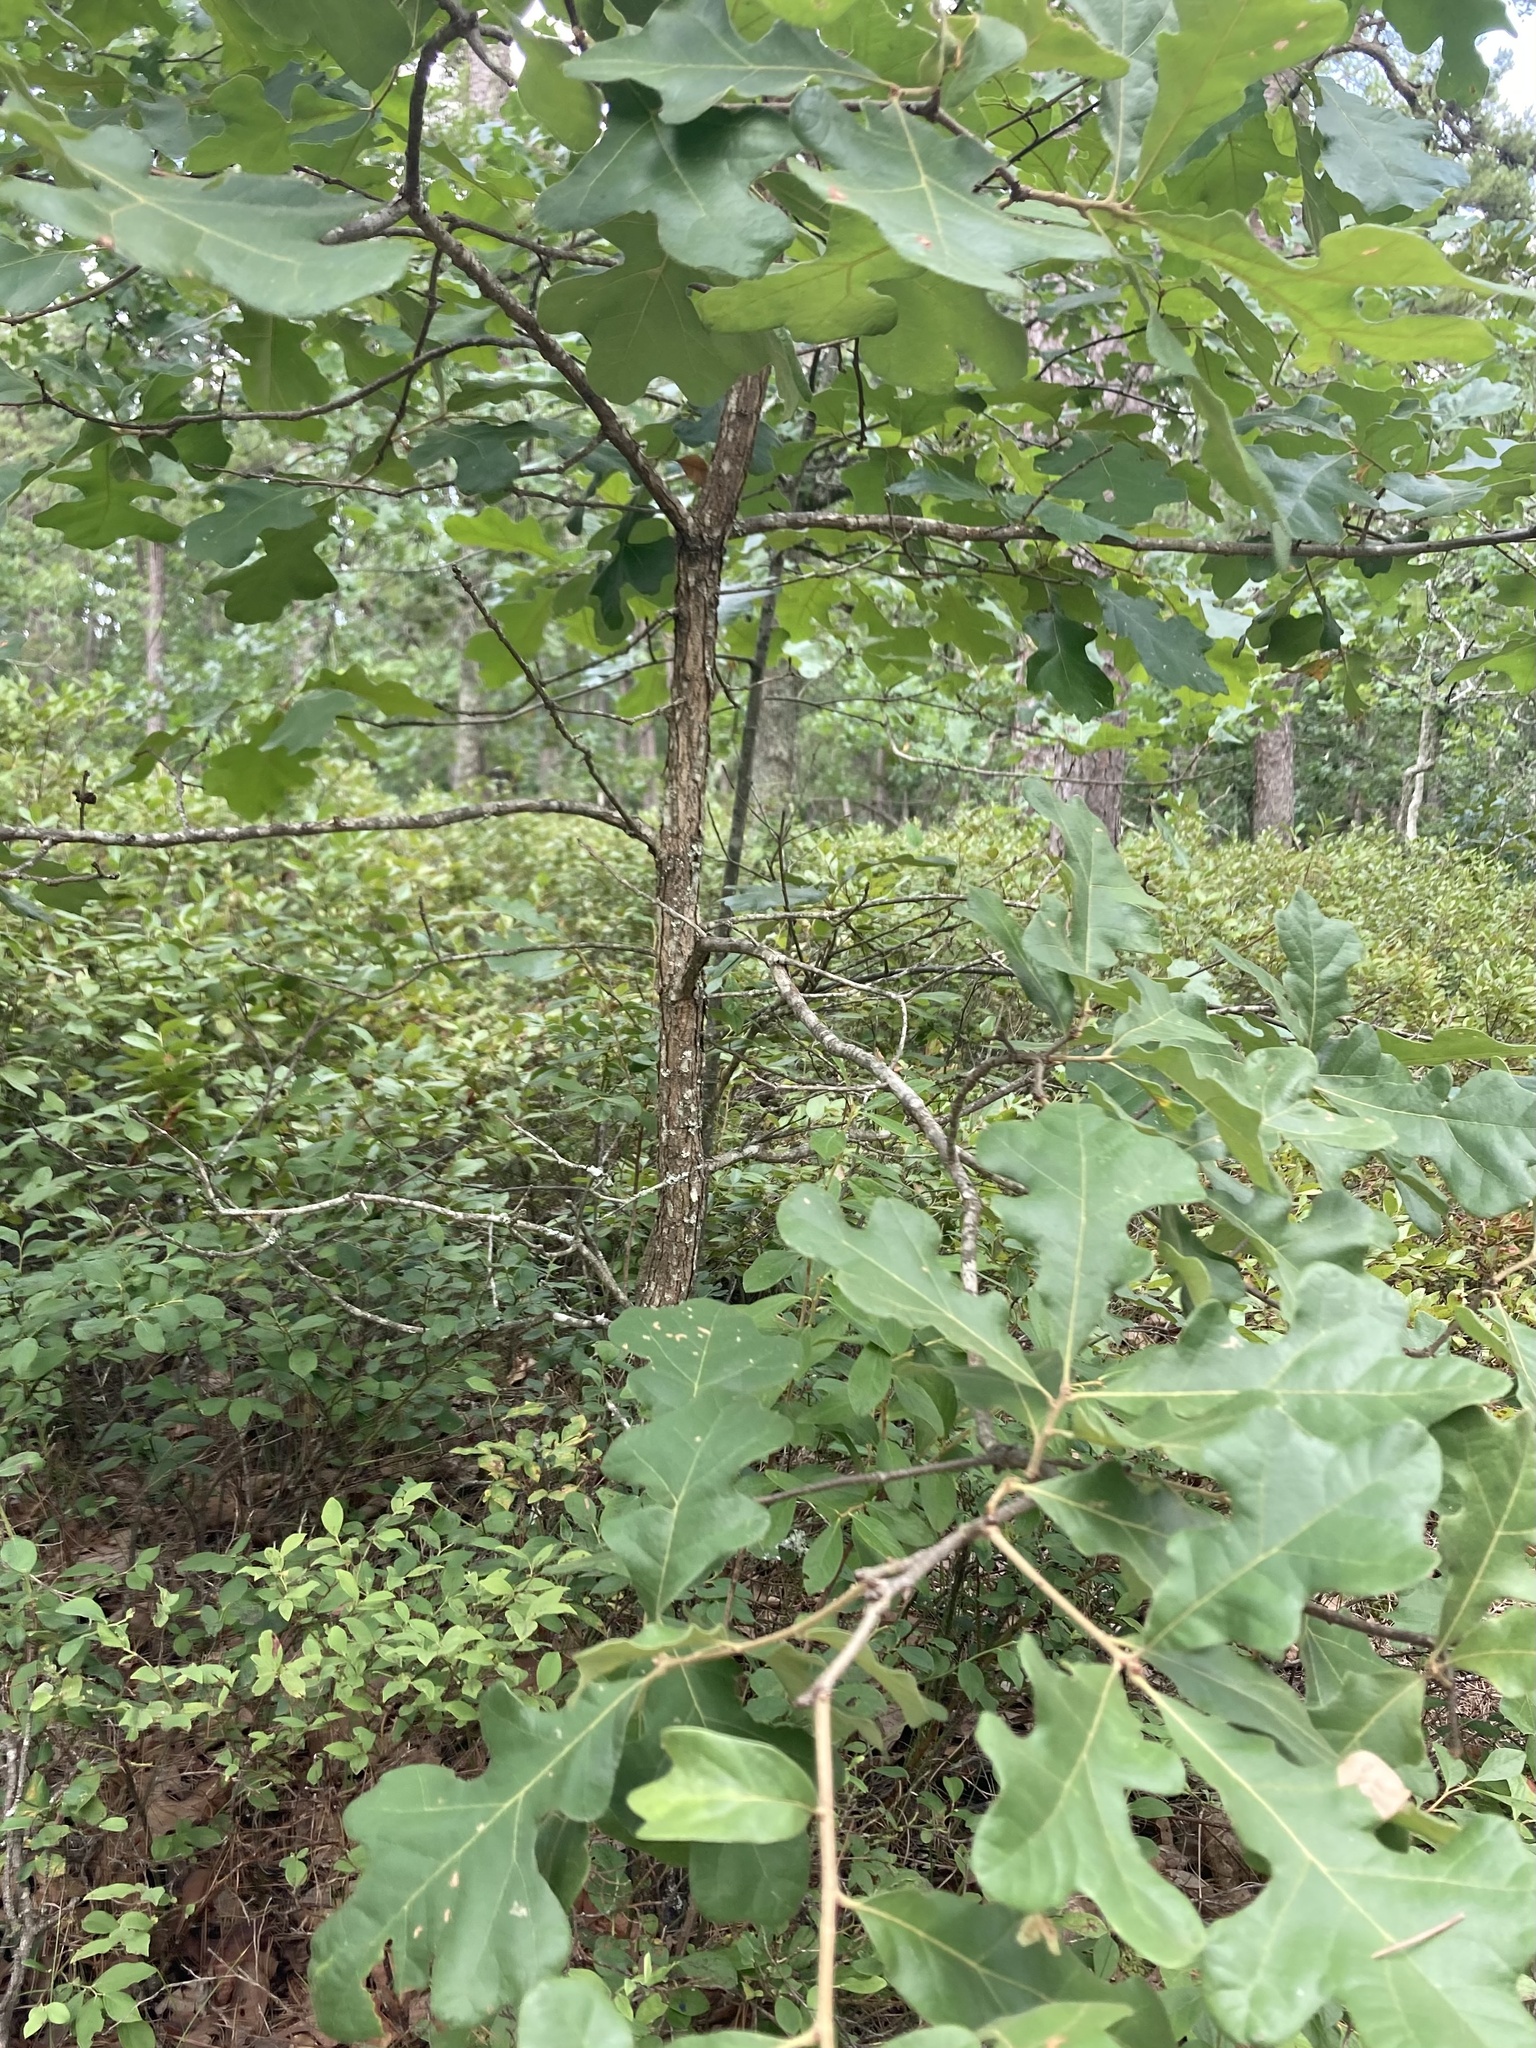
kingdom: Plantae
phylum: Tracheophyta
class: Magnoliopsida
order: Fagales
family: Fagaceae
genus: Quercus
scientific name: Quercus stellata
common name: Post oak
